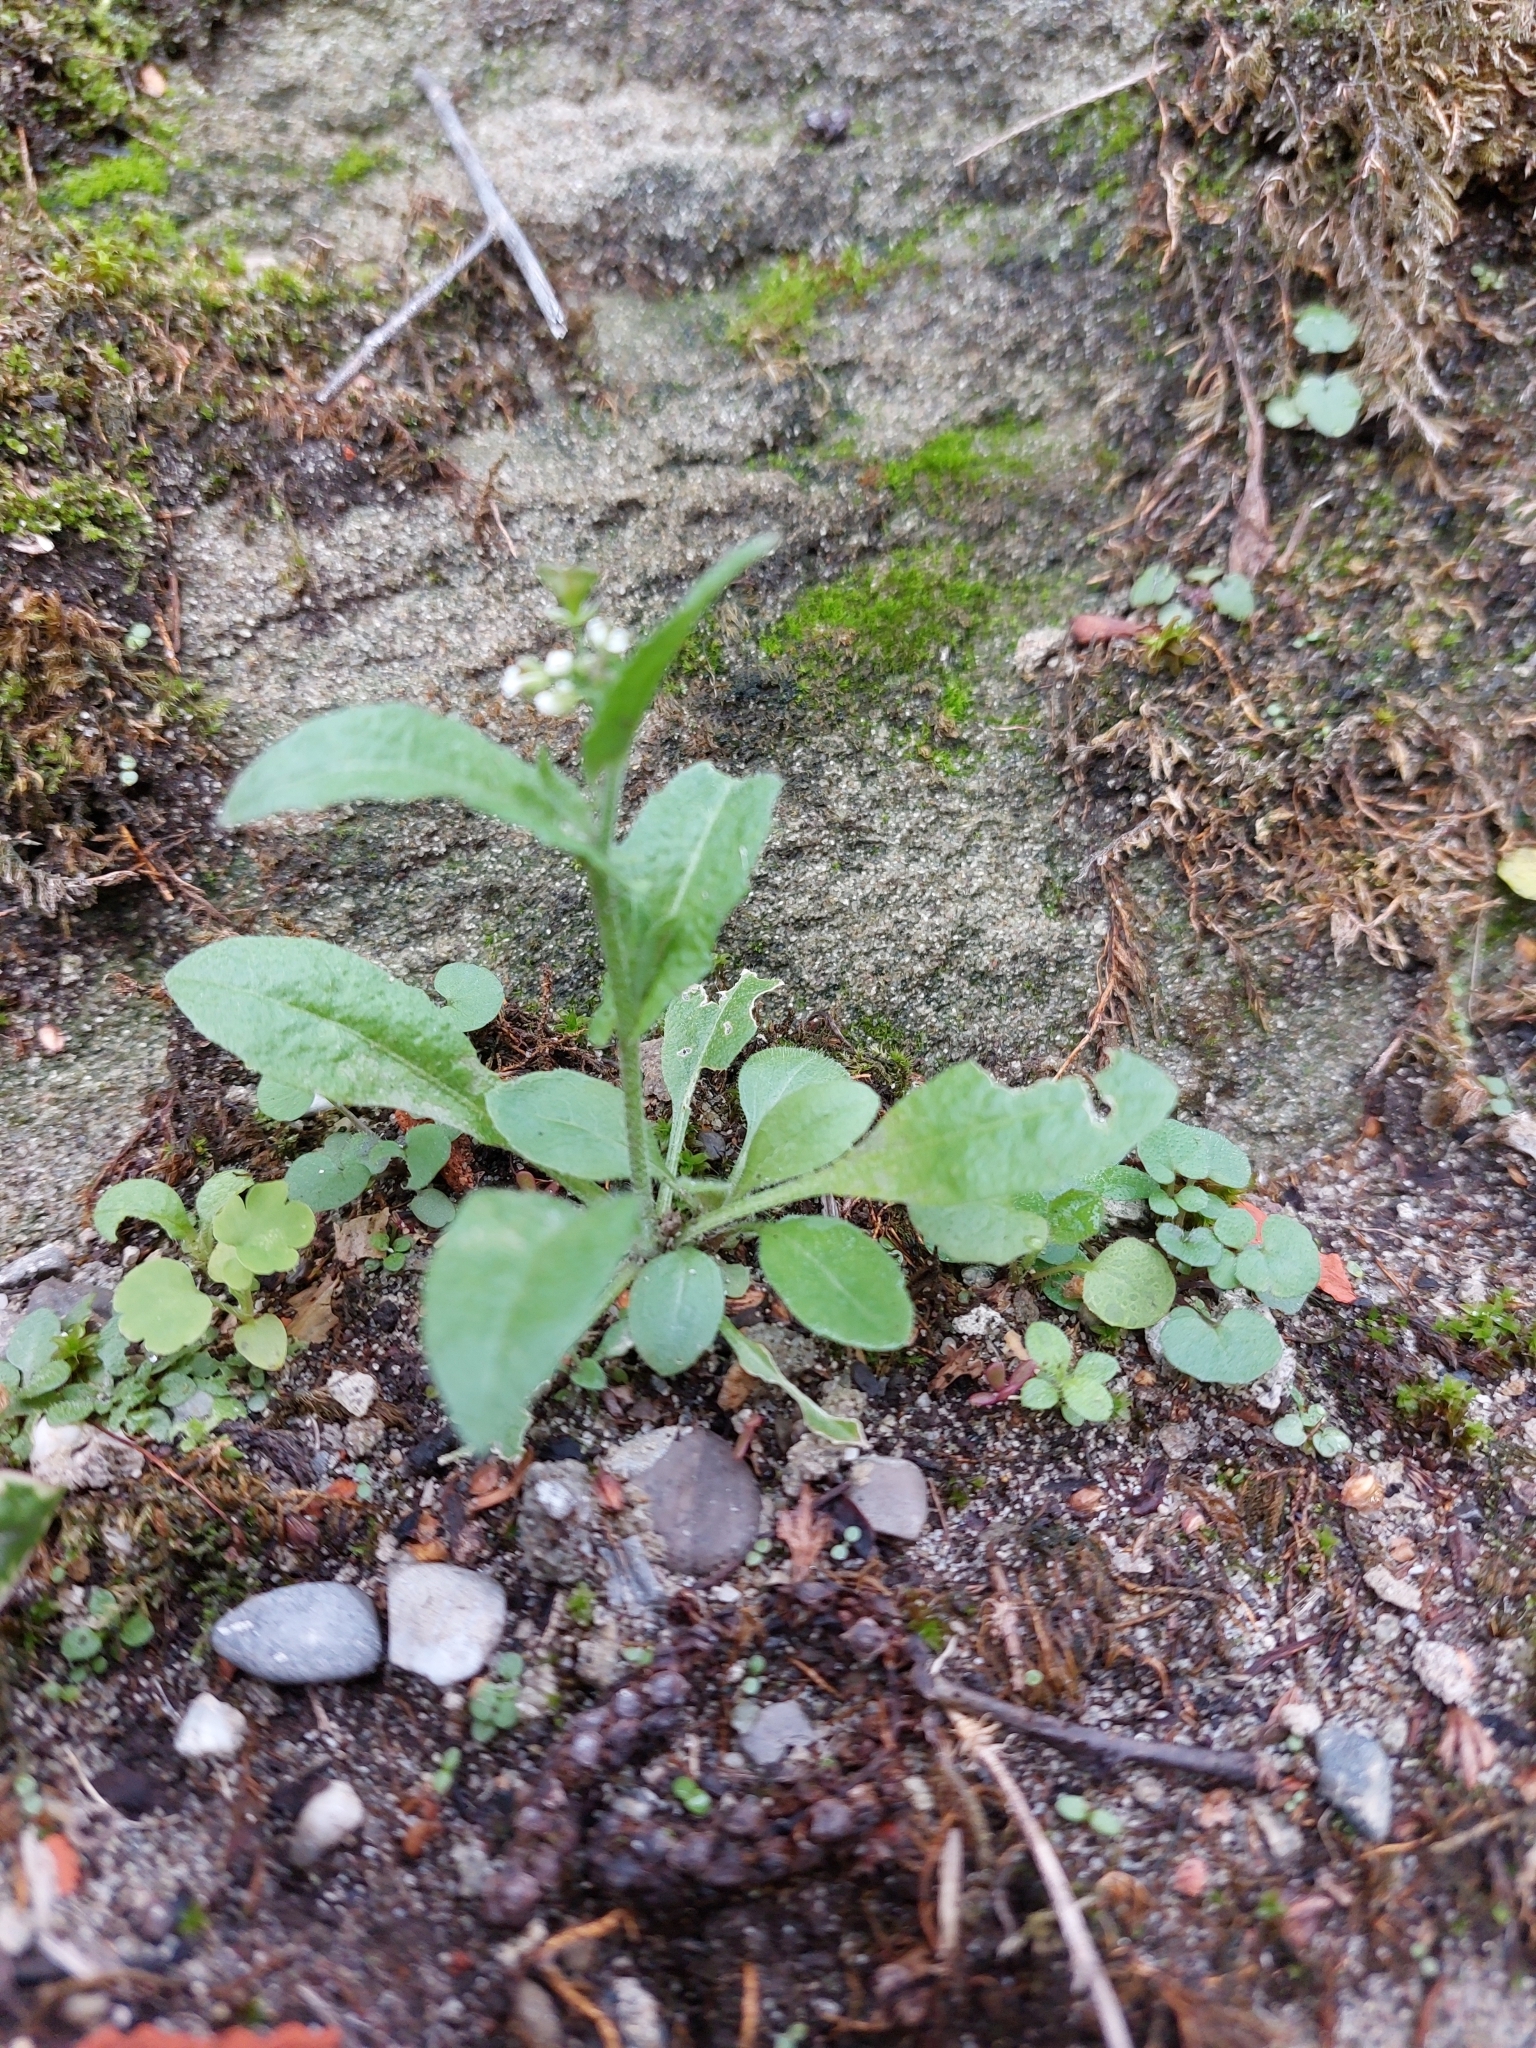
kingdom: Plantae
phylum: Tracheophyta
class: Magnoliopsida
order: Brassicales
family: Brassicaceae
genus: Capsella
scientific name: Capsella bursa-pastoris
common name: Shepherd's purse
